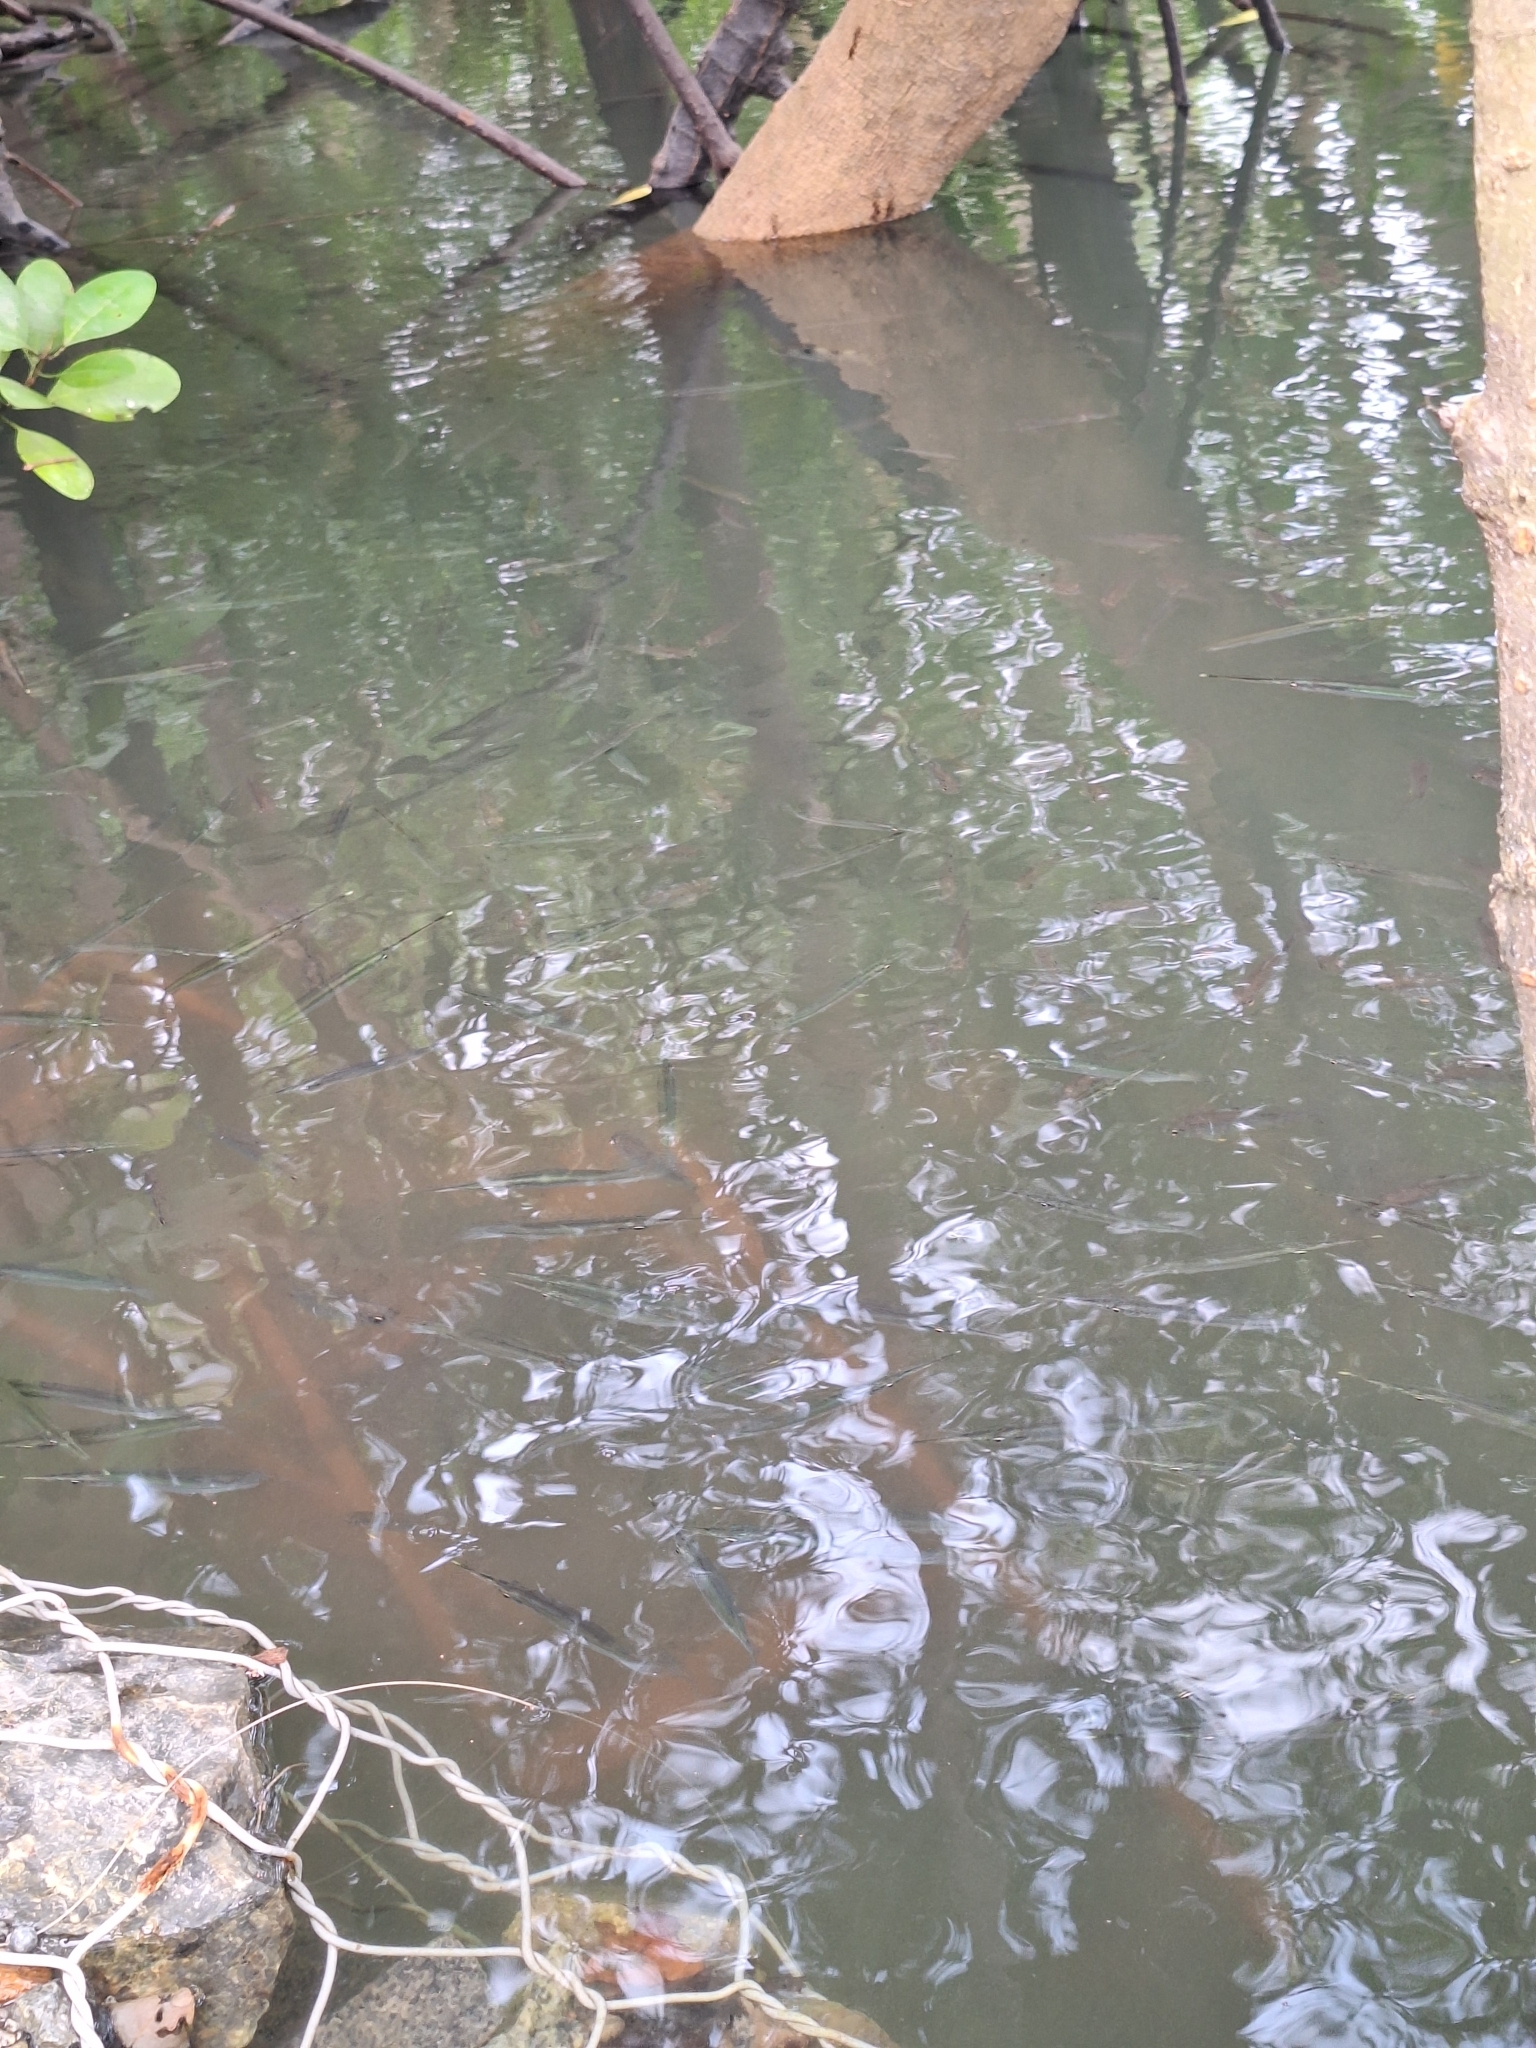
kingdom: Animalia
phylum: Chordata
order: Beloniformes
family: Zenarchopteridae
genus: Zenarchopterus
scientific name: Zenarchopterus buffonis
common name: Buffon's river-garfish
